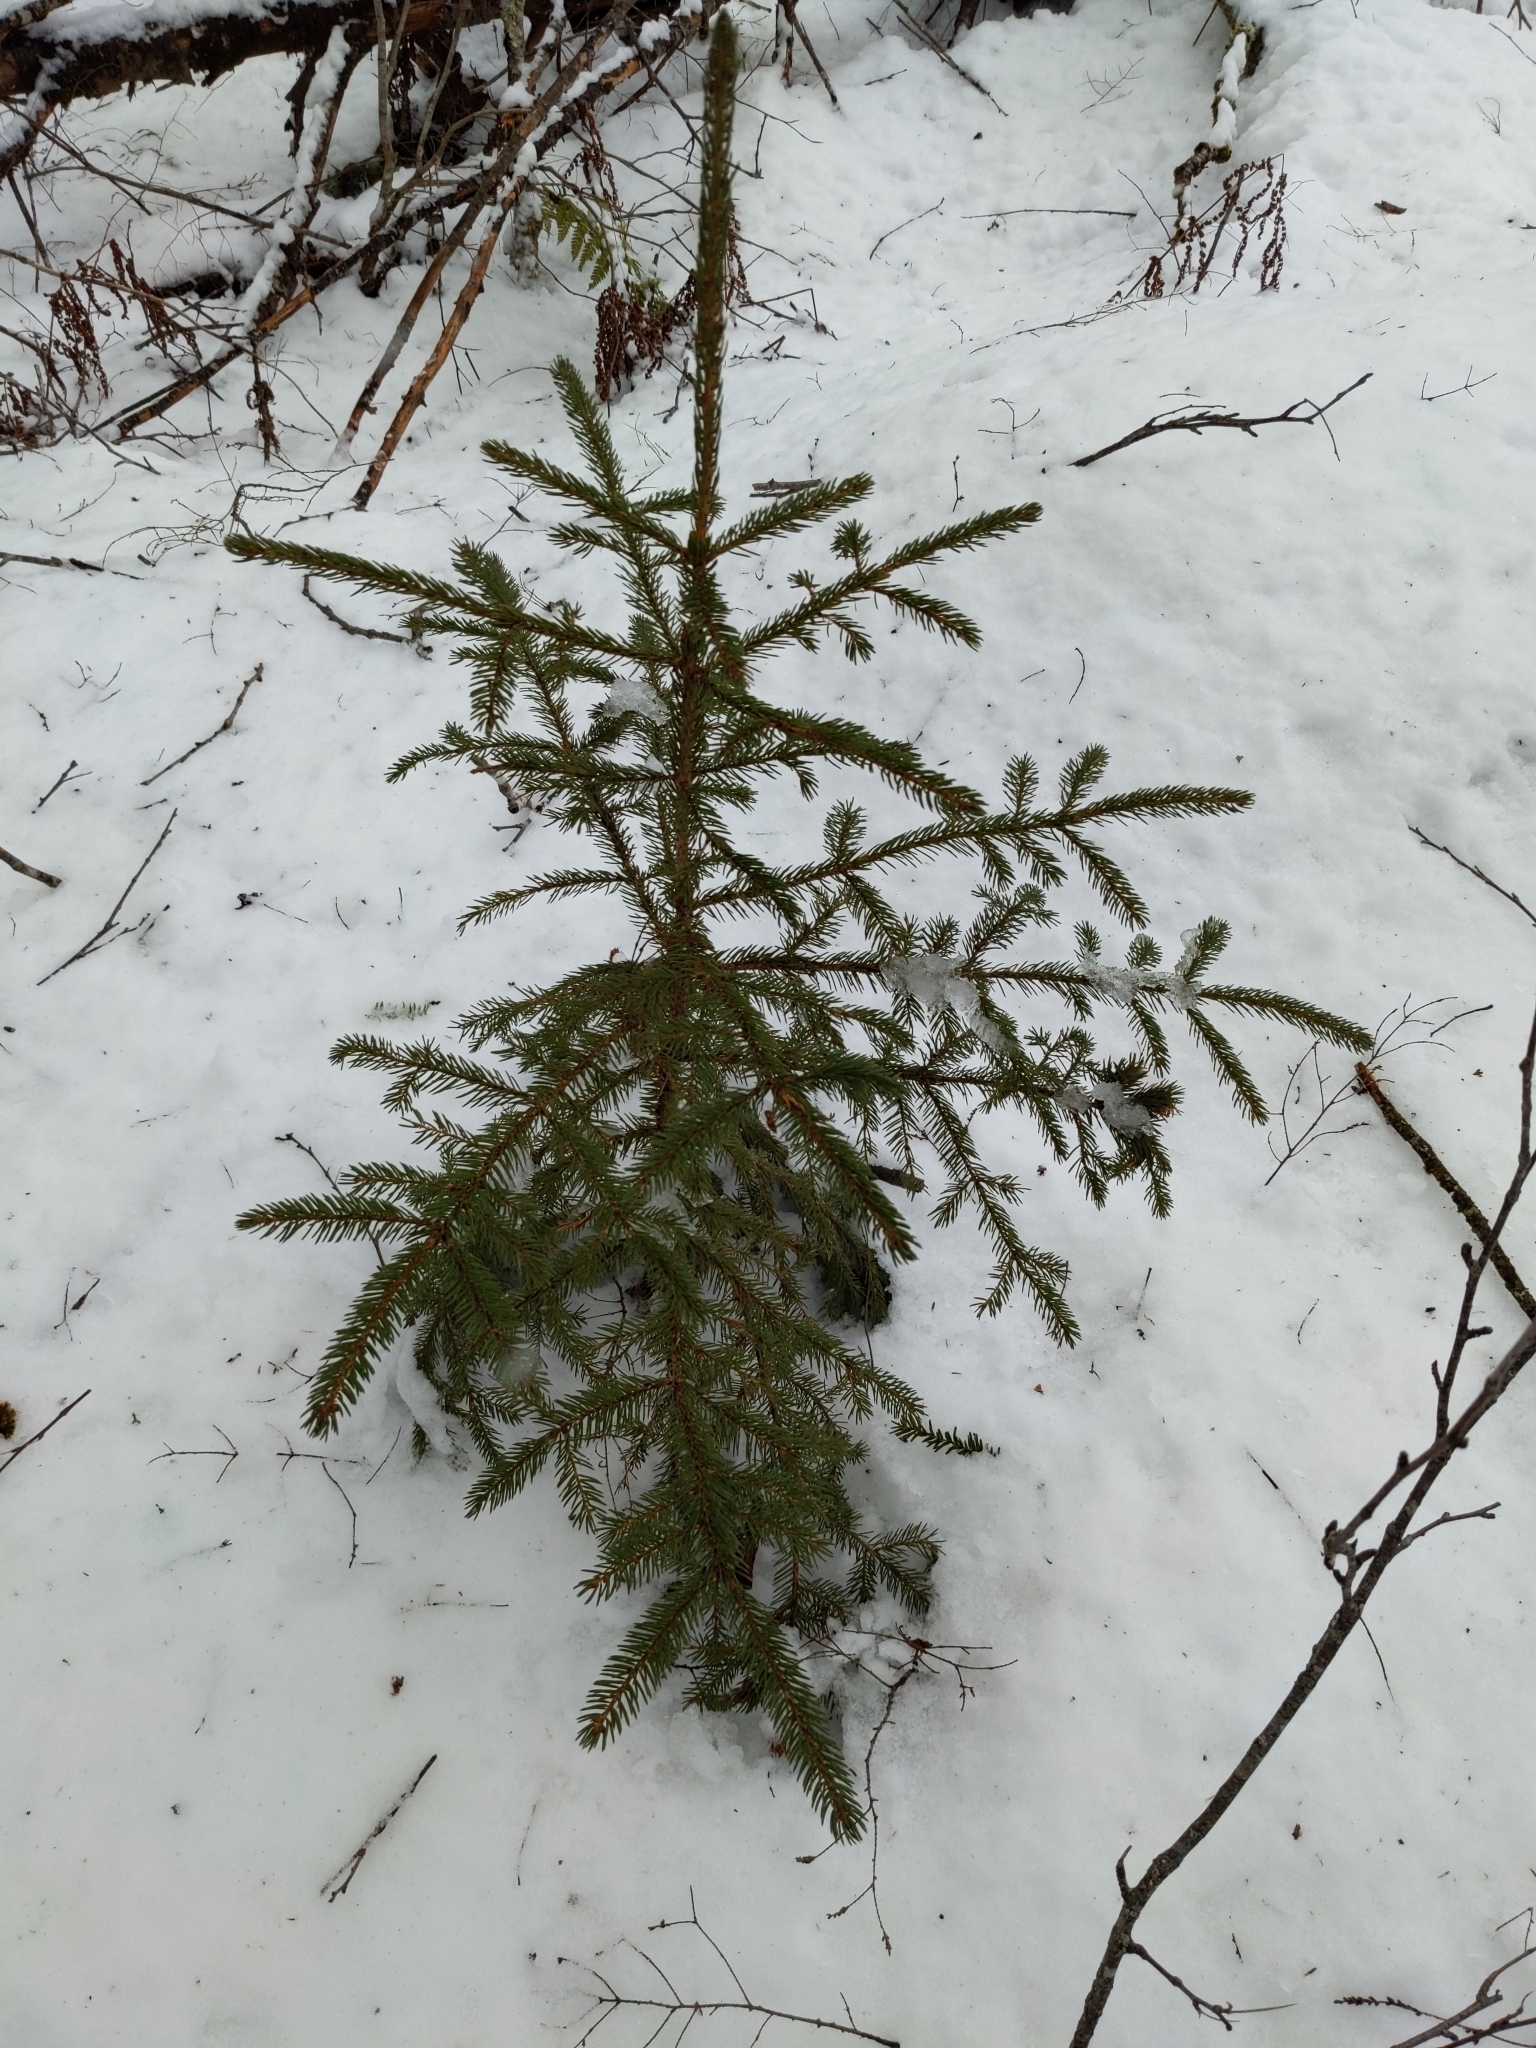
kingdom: Plantae
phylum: Tracheophyta
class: Pinopsida
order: Pinales
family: Pinaceae
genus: Picea
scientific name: Picea rubens
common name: Red spruce
